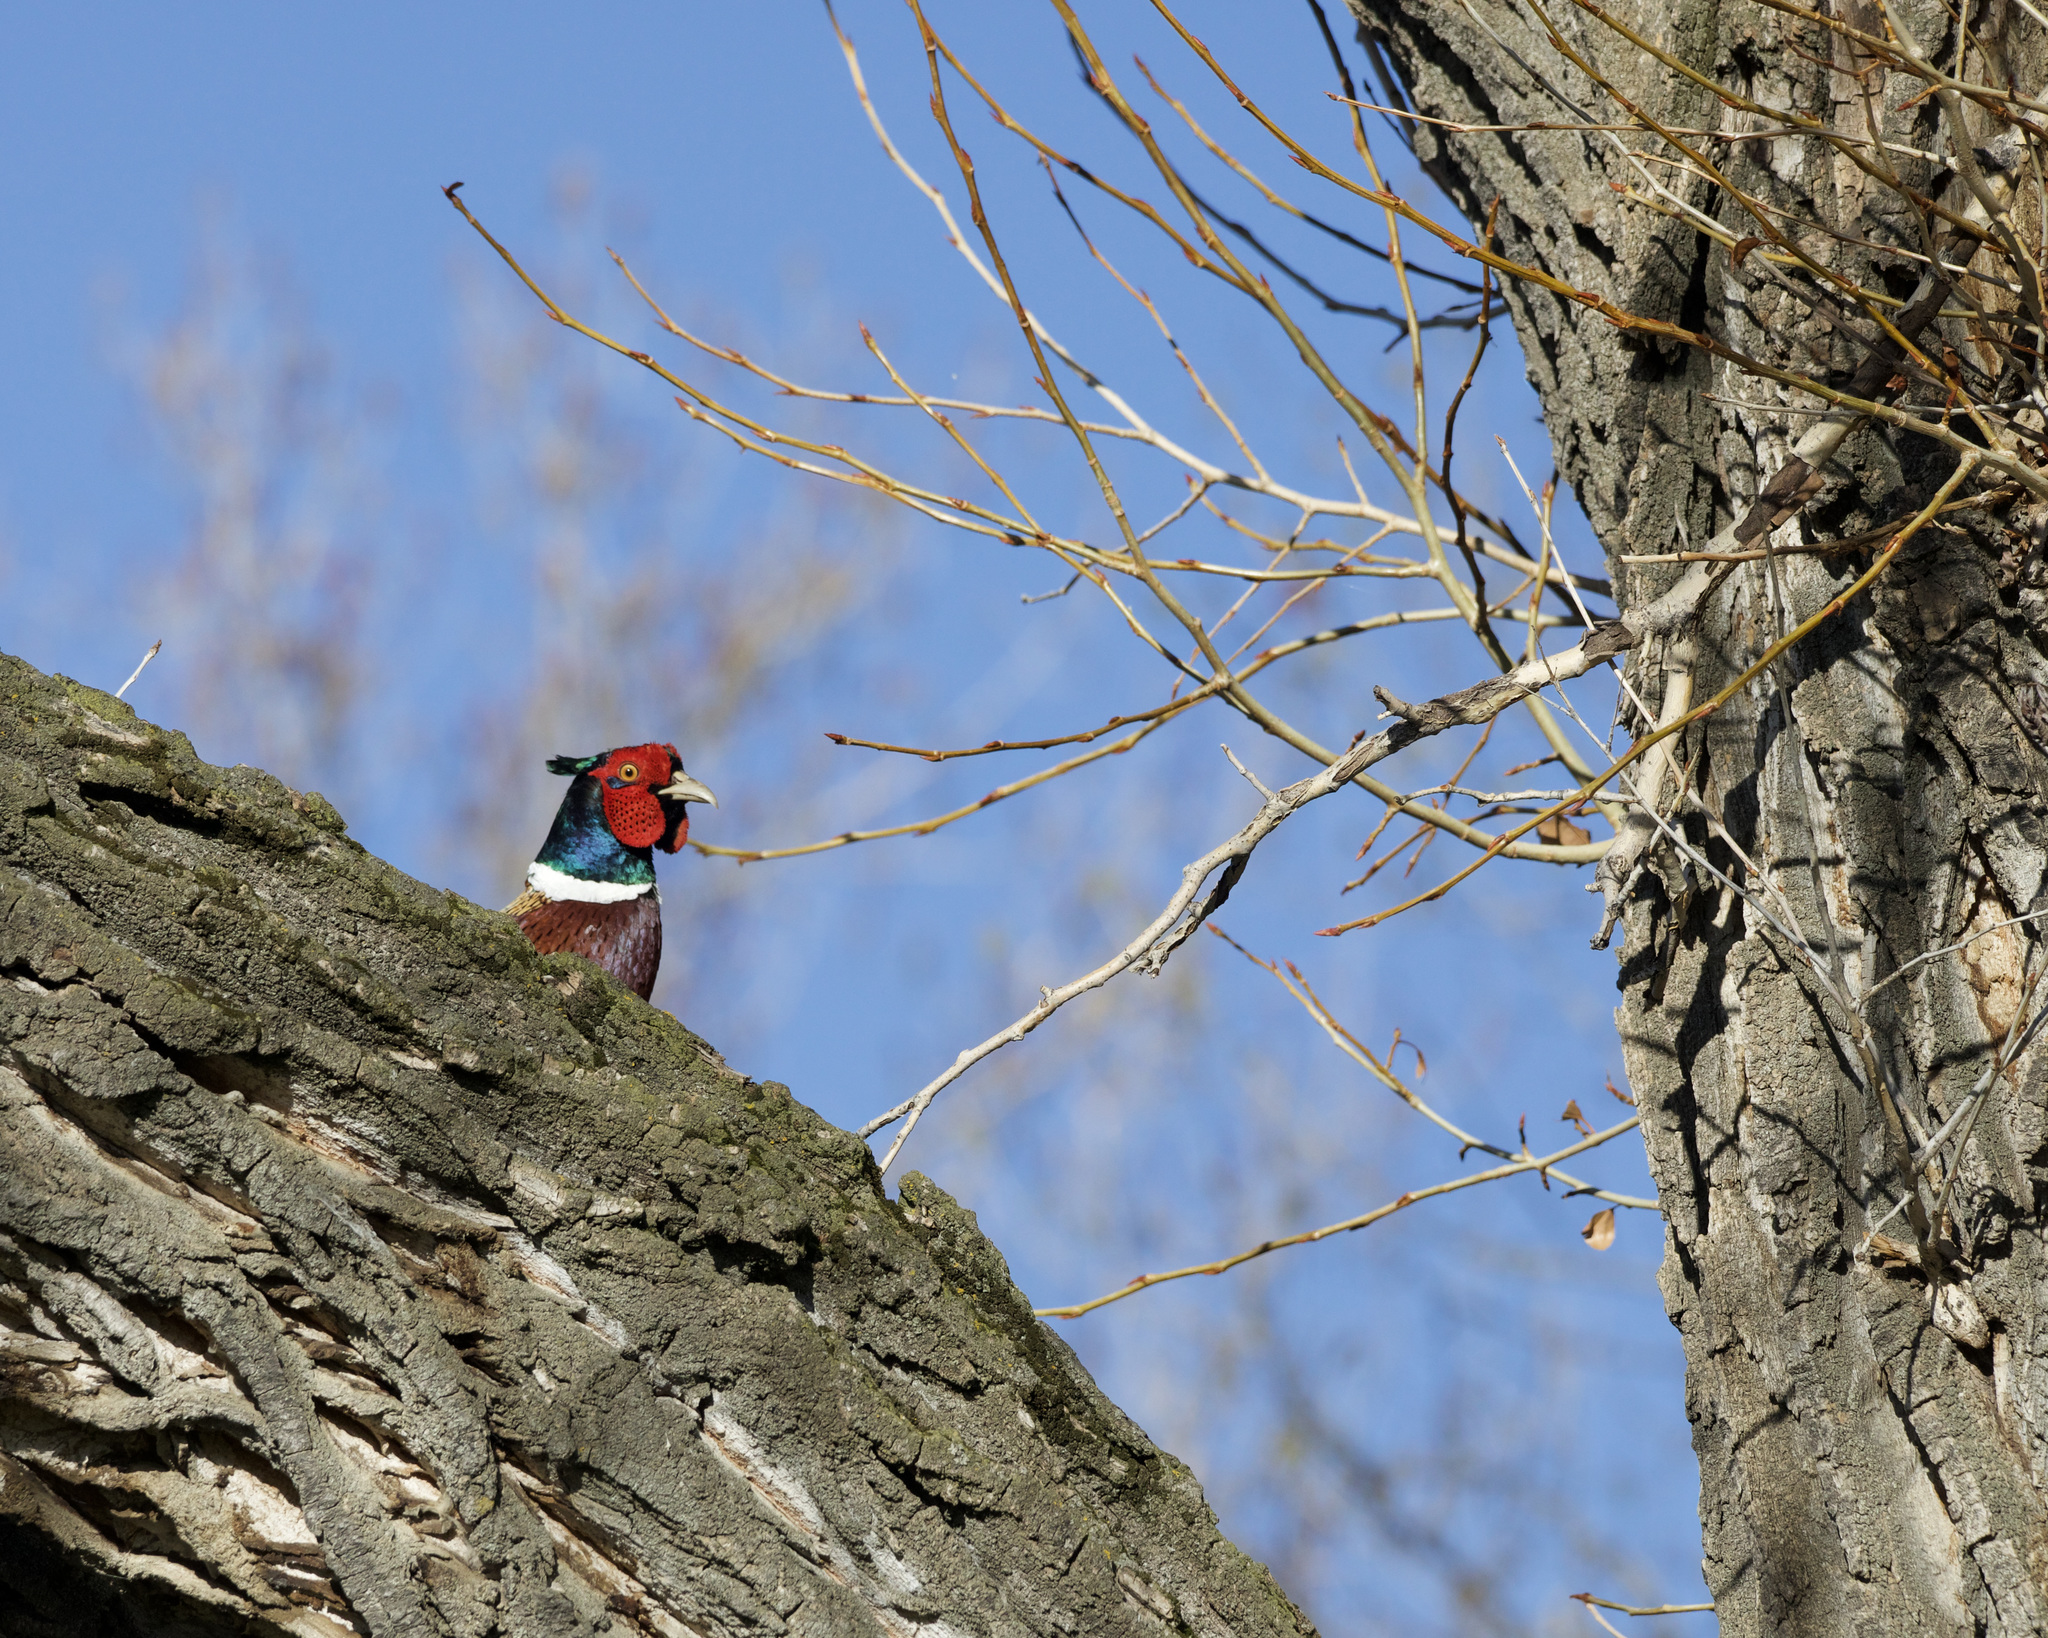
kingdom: Animalia
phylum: Chordata
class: Aves
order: Galliformes
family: Phasianidae
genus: Phasianus
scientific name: Phasianus colchicus
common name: Common pheasant
